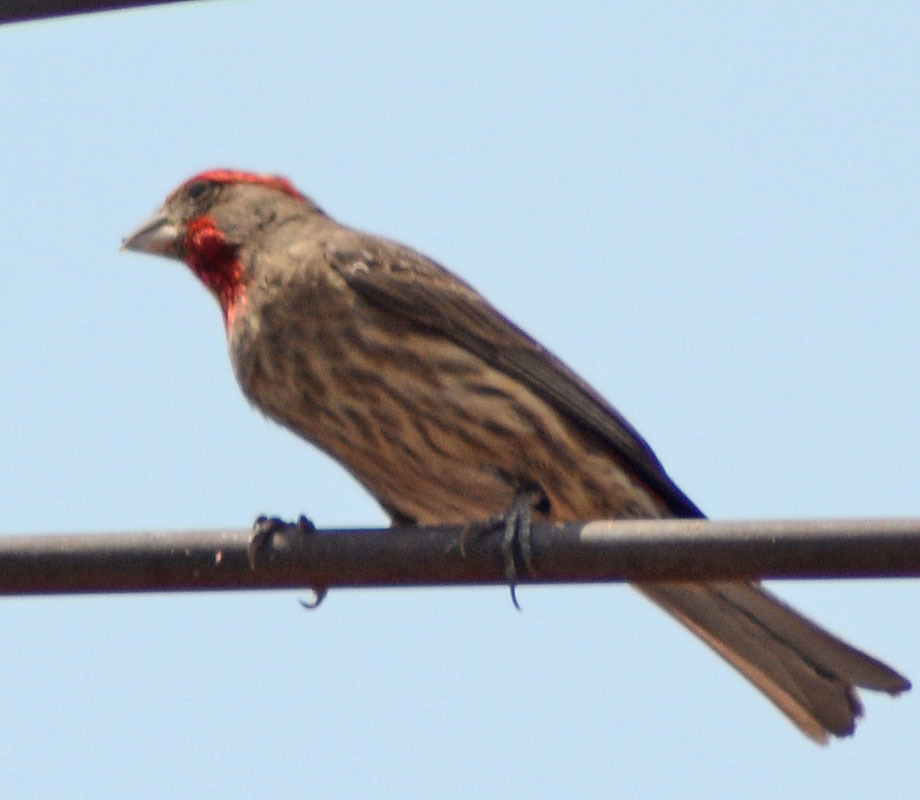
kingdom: Animalia
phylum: Chordata
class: Aves
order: Passeriformes
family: Fringillidae
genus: Haemorhous
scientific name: Haemorhous mexicanus
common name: House finch
